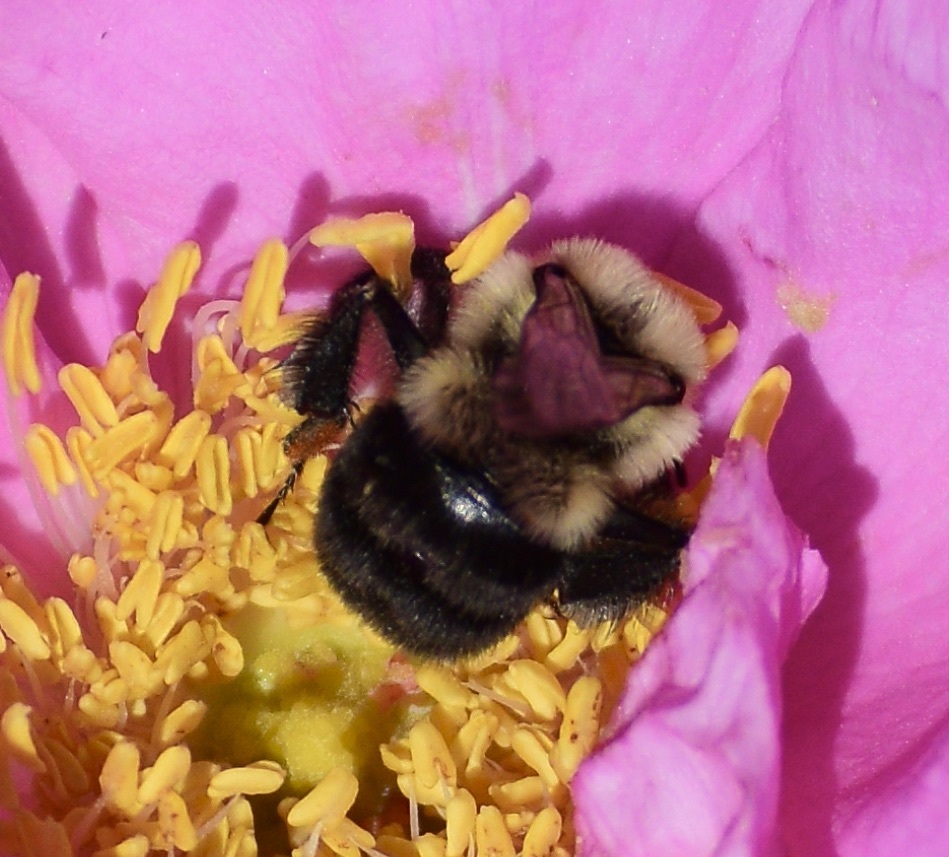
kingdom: Animalia
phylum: Arthropoda
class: Insecta
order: Hymenoptera
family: Apidae
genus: Bombus
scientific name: Bombus impatiens
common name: Common eastern bumble bee
